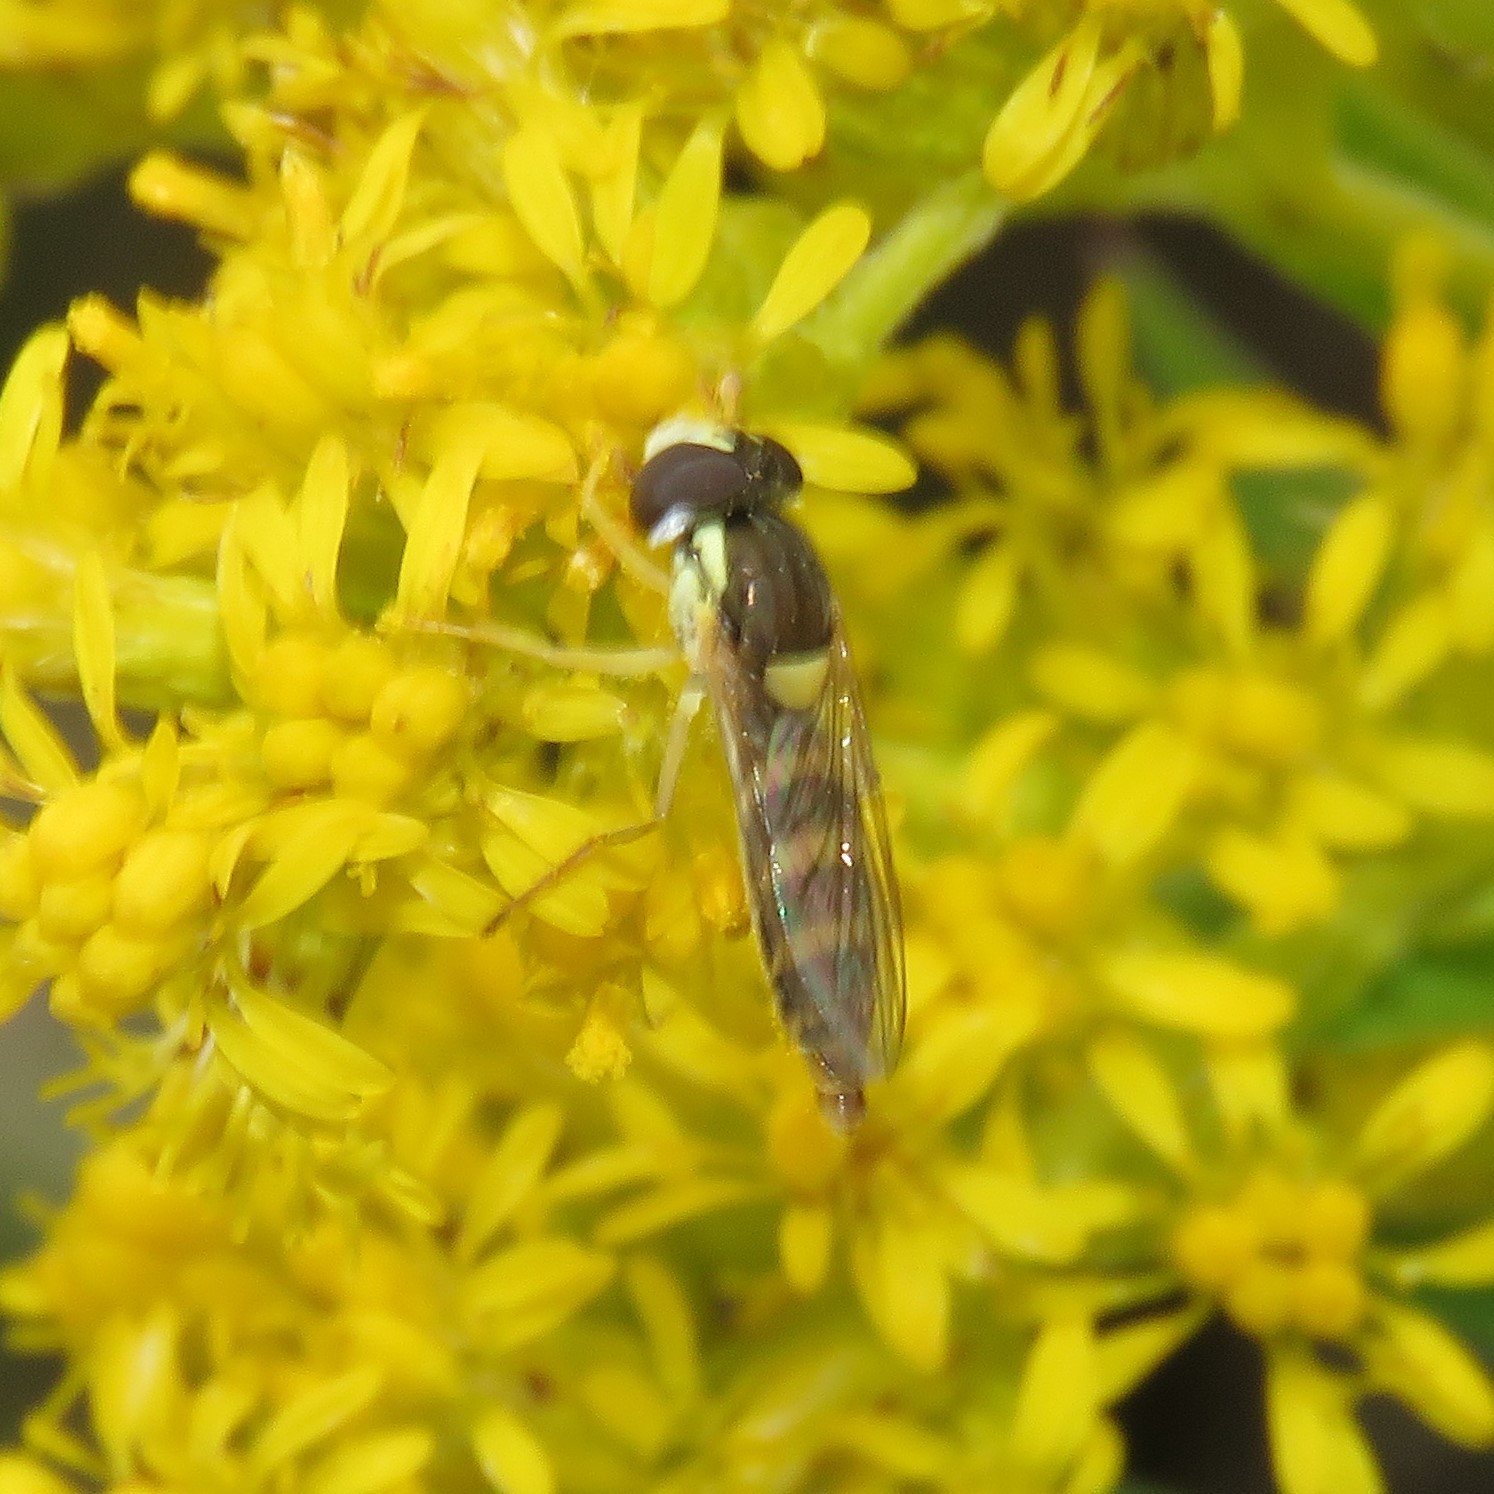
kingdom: Animalia
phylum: Arthropoda
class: Insecta
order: Diptera
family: Syrphidae
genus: Sphaerophoria
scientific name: Sphaerophoria contigua
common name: Tufted globetail
